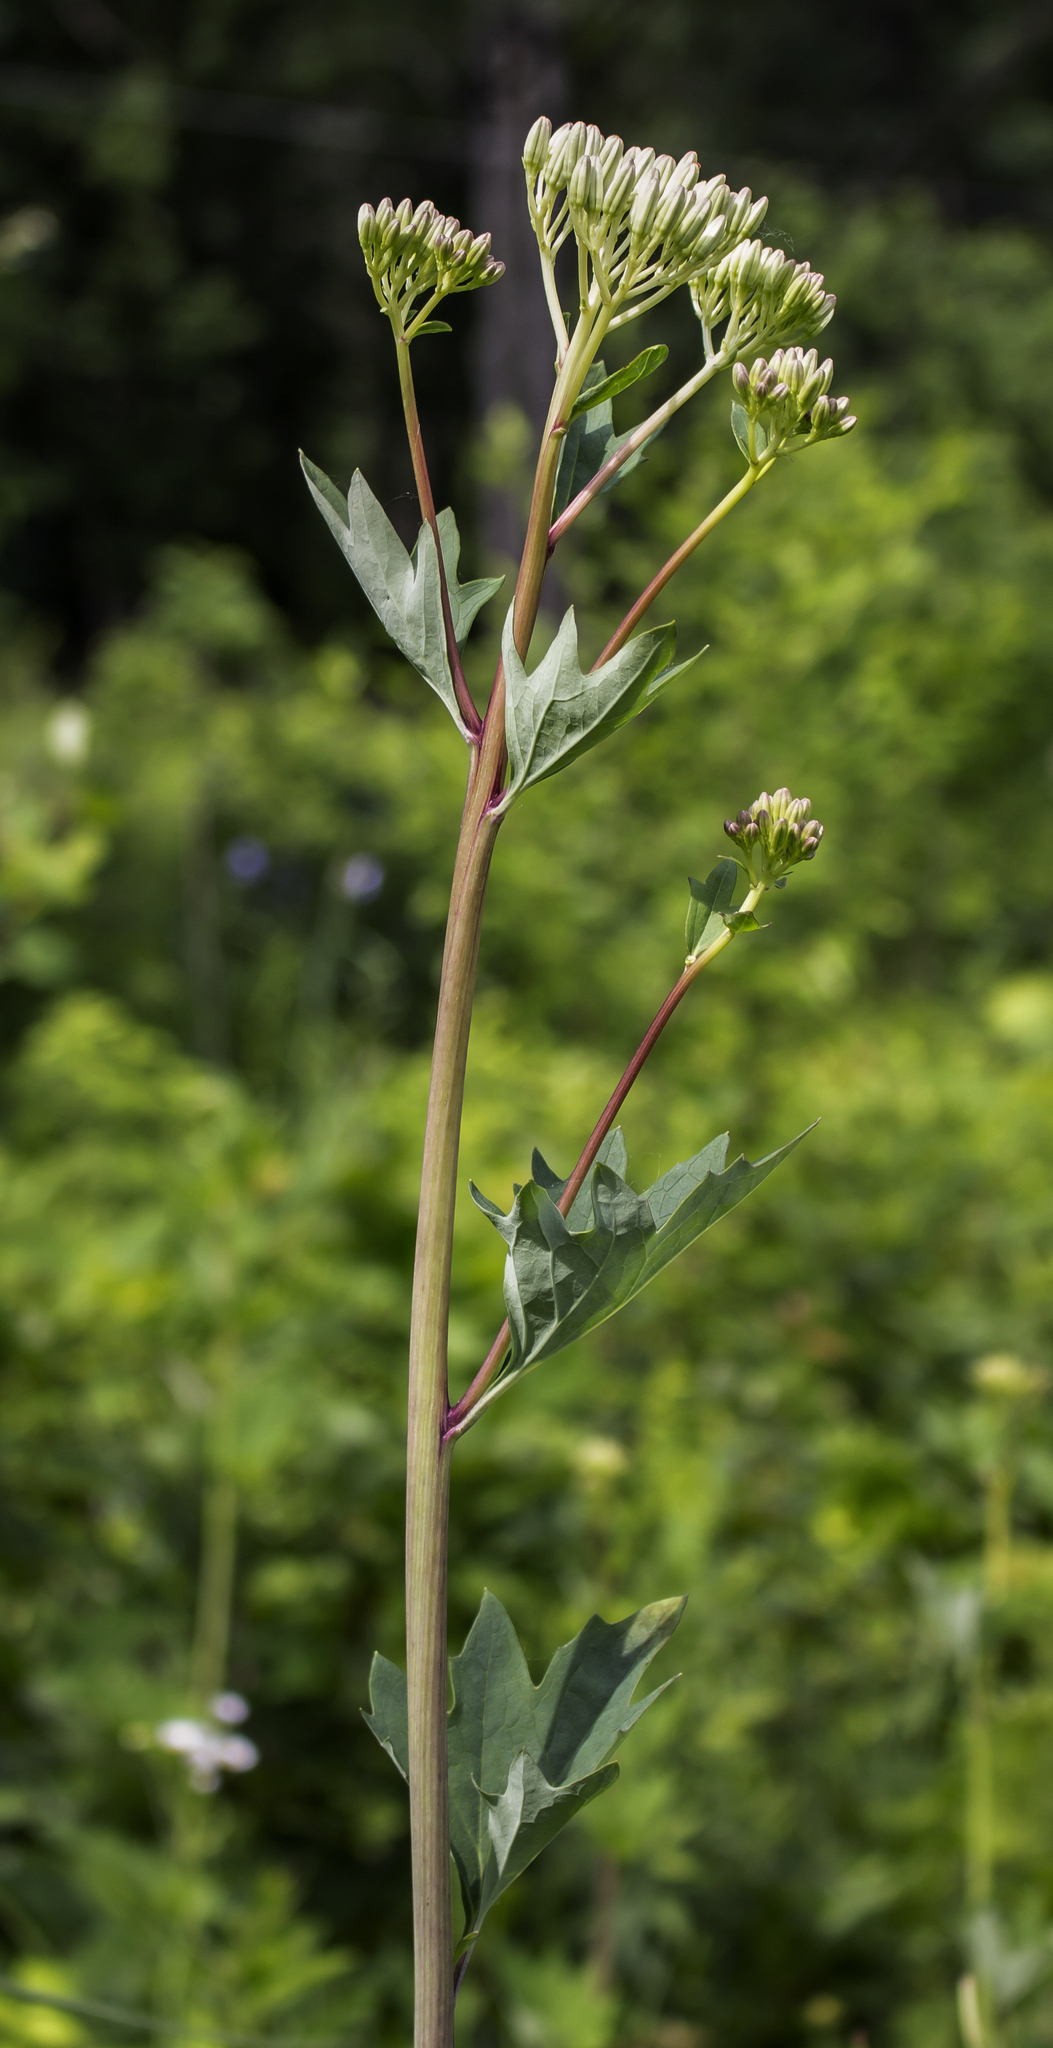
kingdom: Plantae
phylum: Tracheophyta
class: Magnoliopsida
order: Asterales
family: Asteraceae
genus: Arnoglossum
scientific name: Arnoglossum atriplicifolium
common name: Pale indian-plantain
